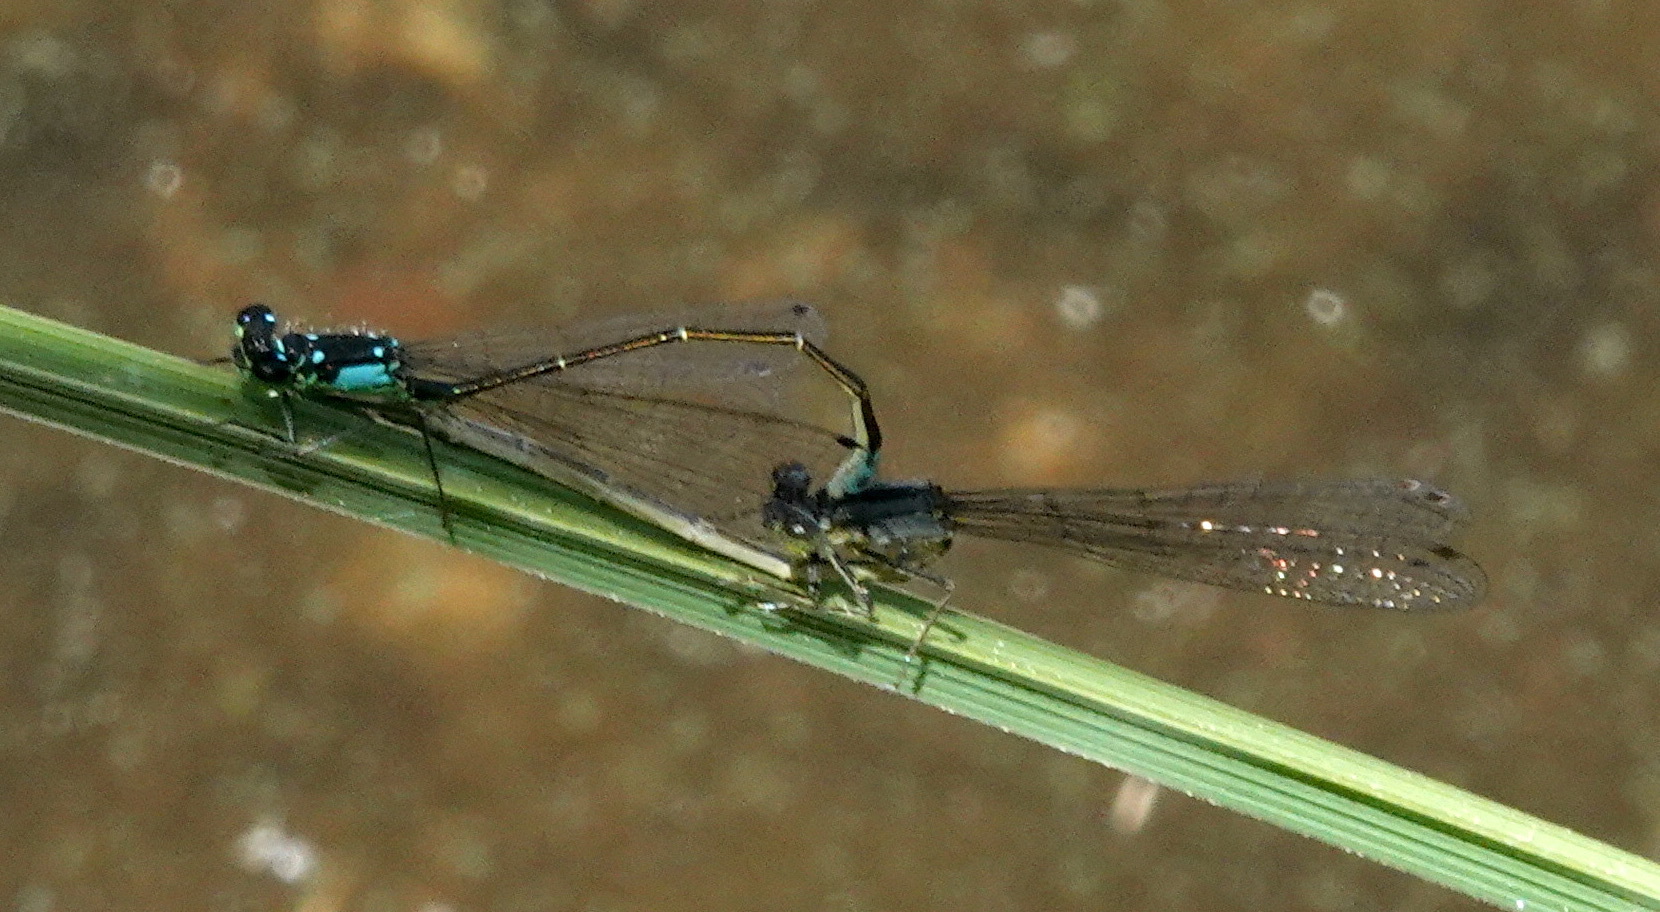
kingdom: Animalia
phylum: Arthropoda
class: Insecta
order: Odonata
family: Coenagrionidae
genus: Ischnura
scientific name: Ischnura cervula
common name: Pacific forktail
